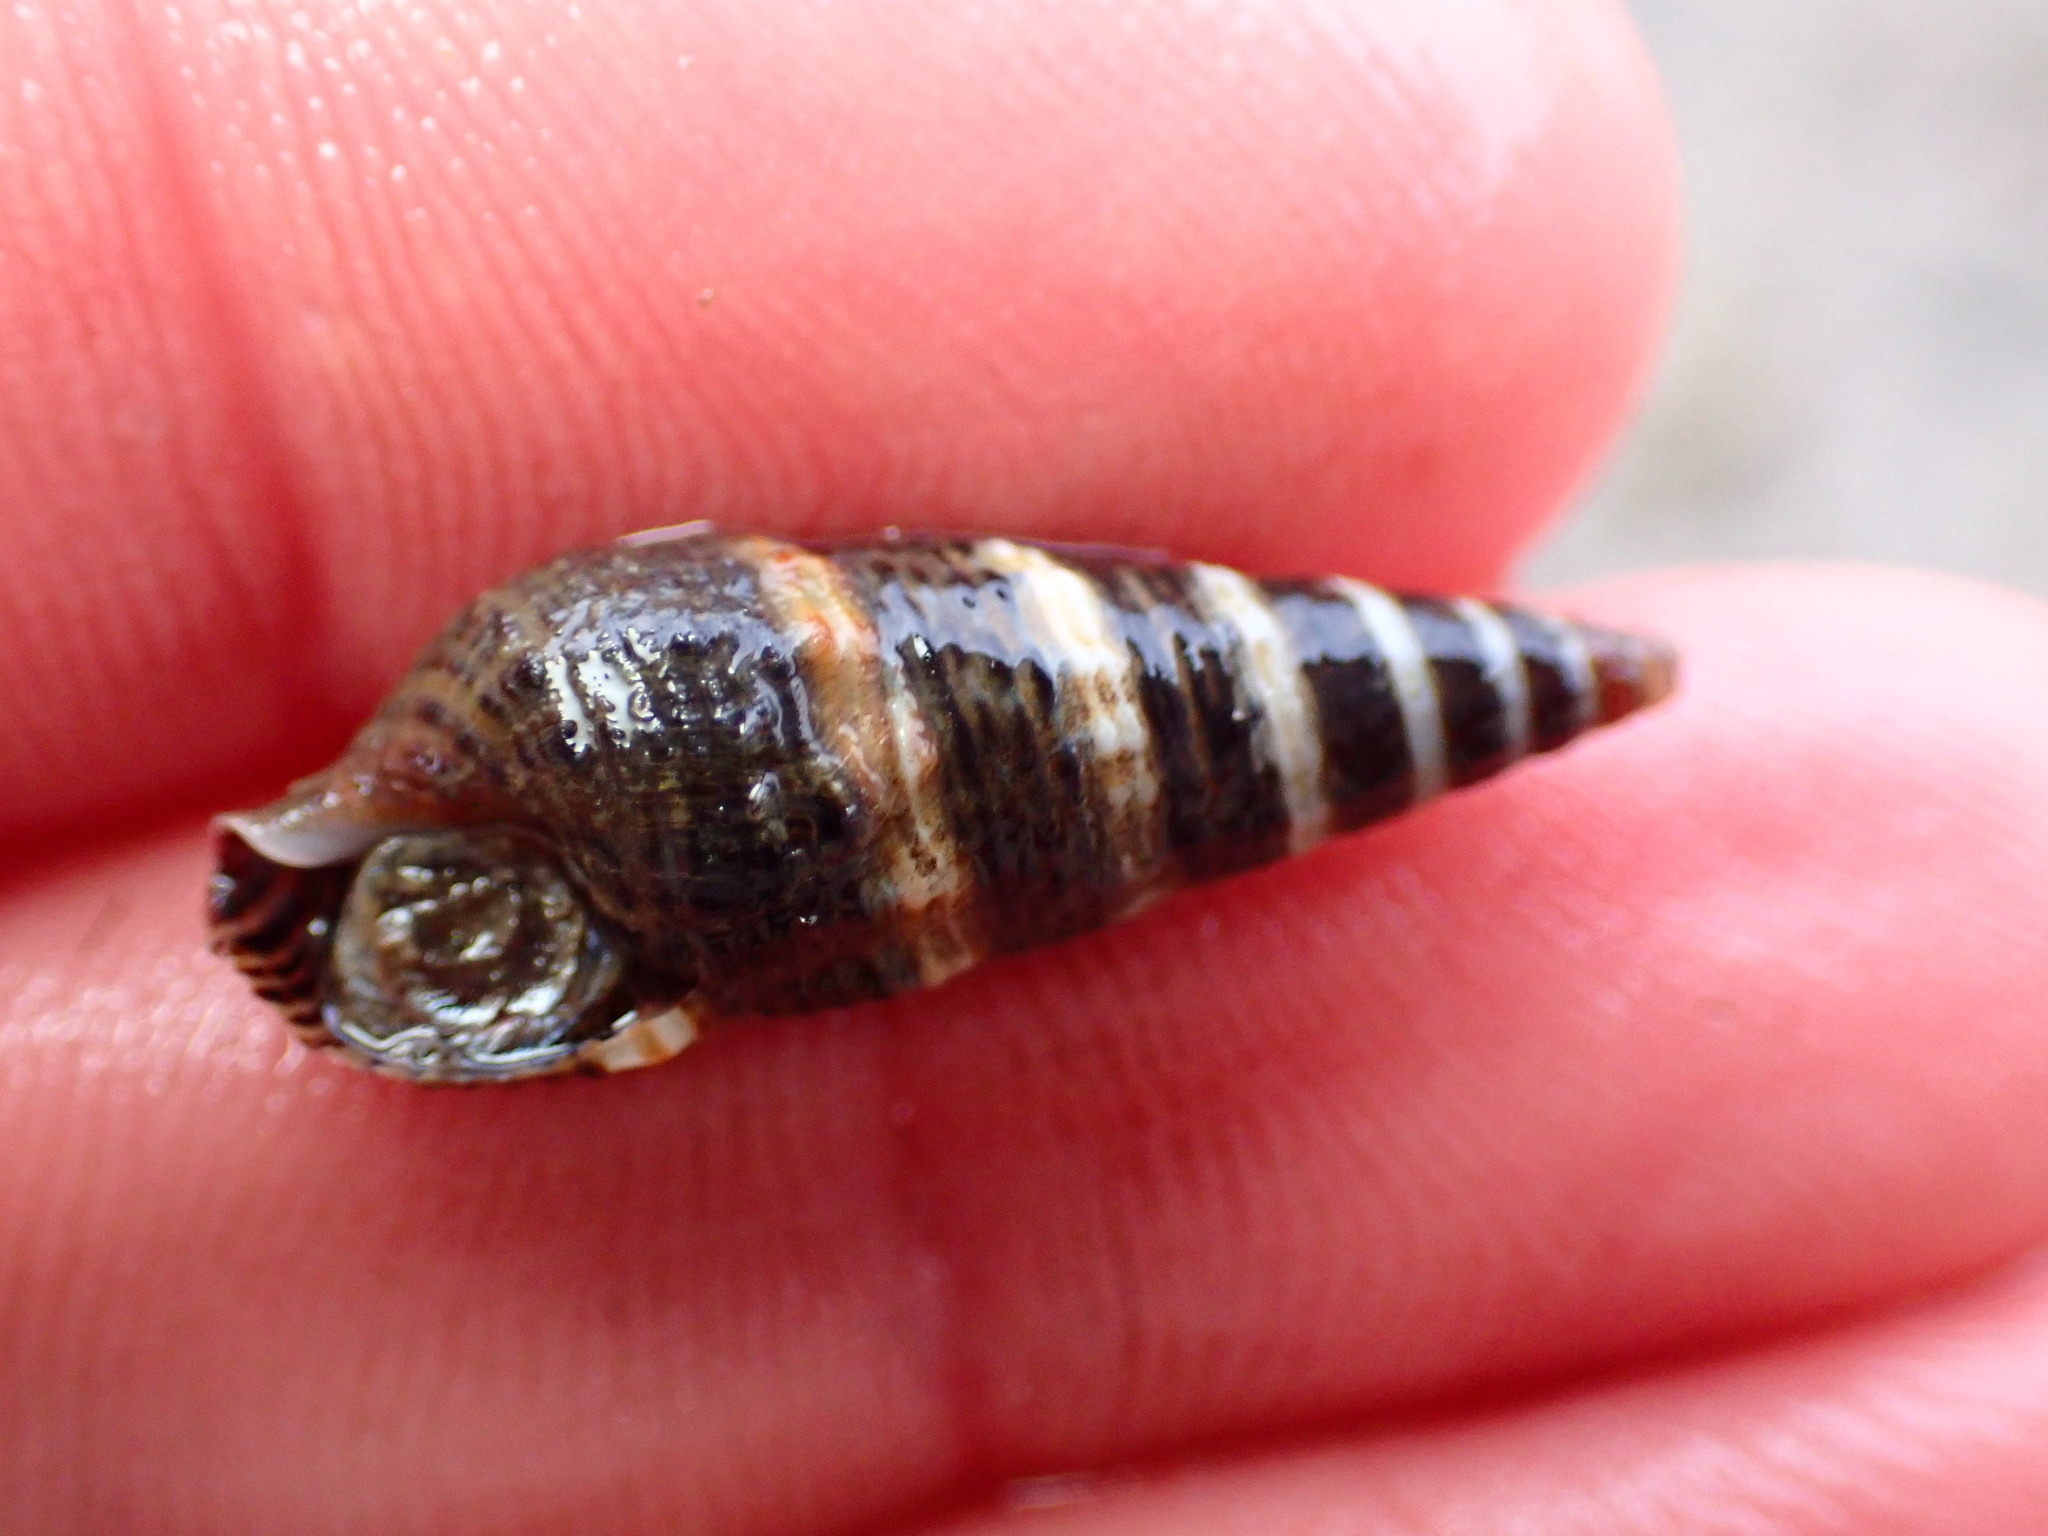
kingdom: Animalia
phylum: Mollusca
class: Gastropoda
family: Batillariidae
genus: Batillaria
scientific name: Batillaria attramentaria
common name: Japanese false cerith
